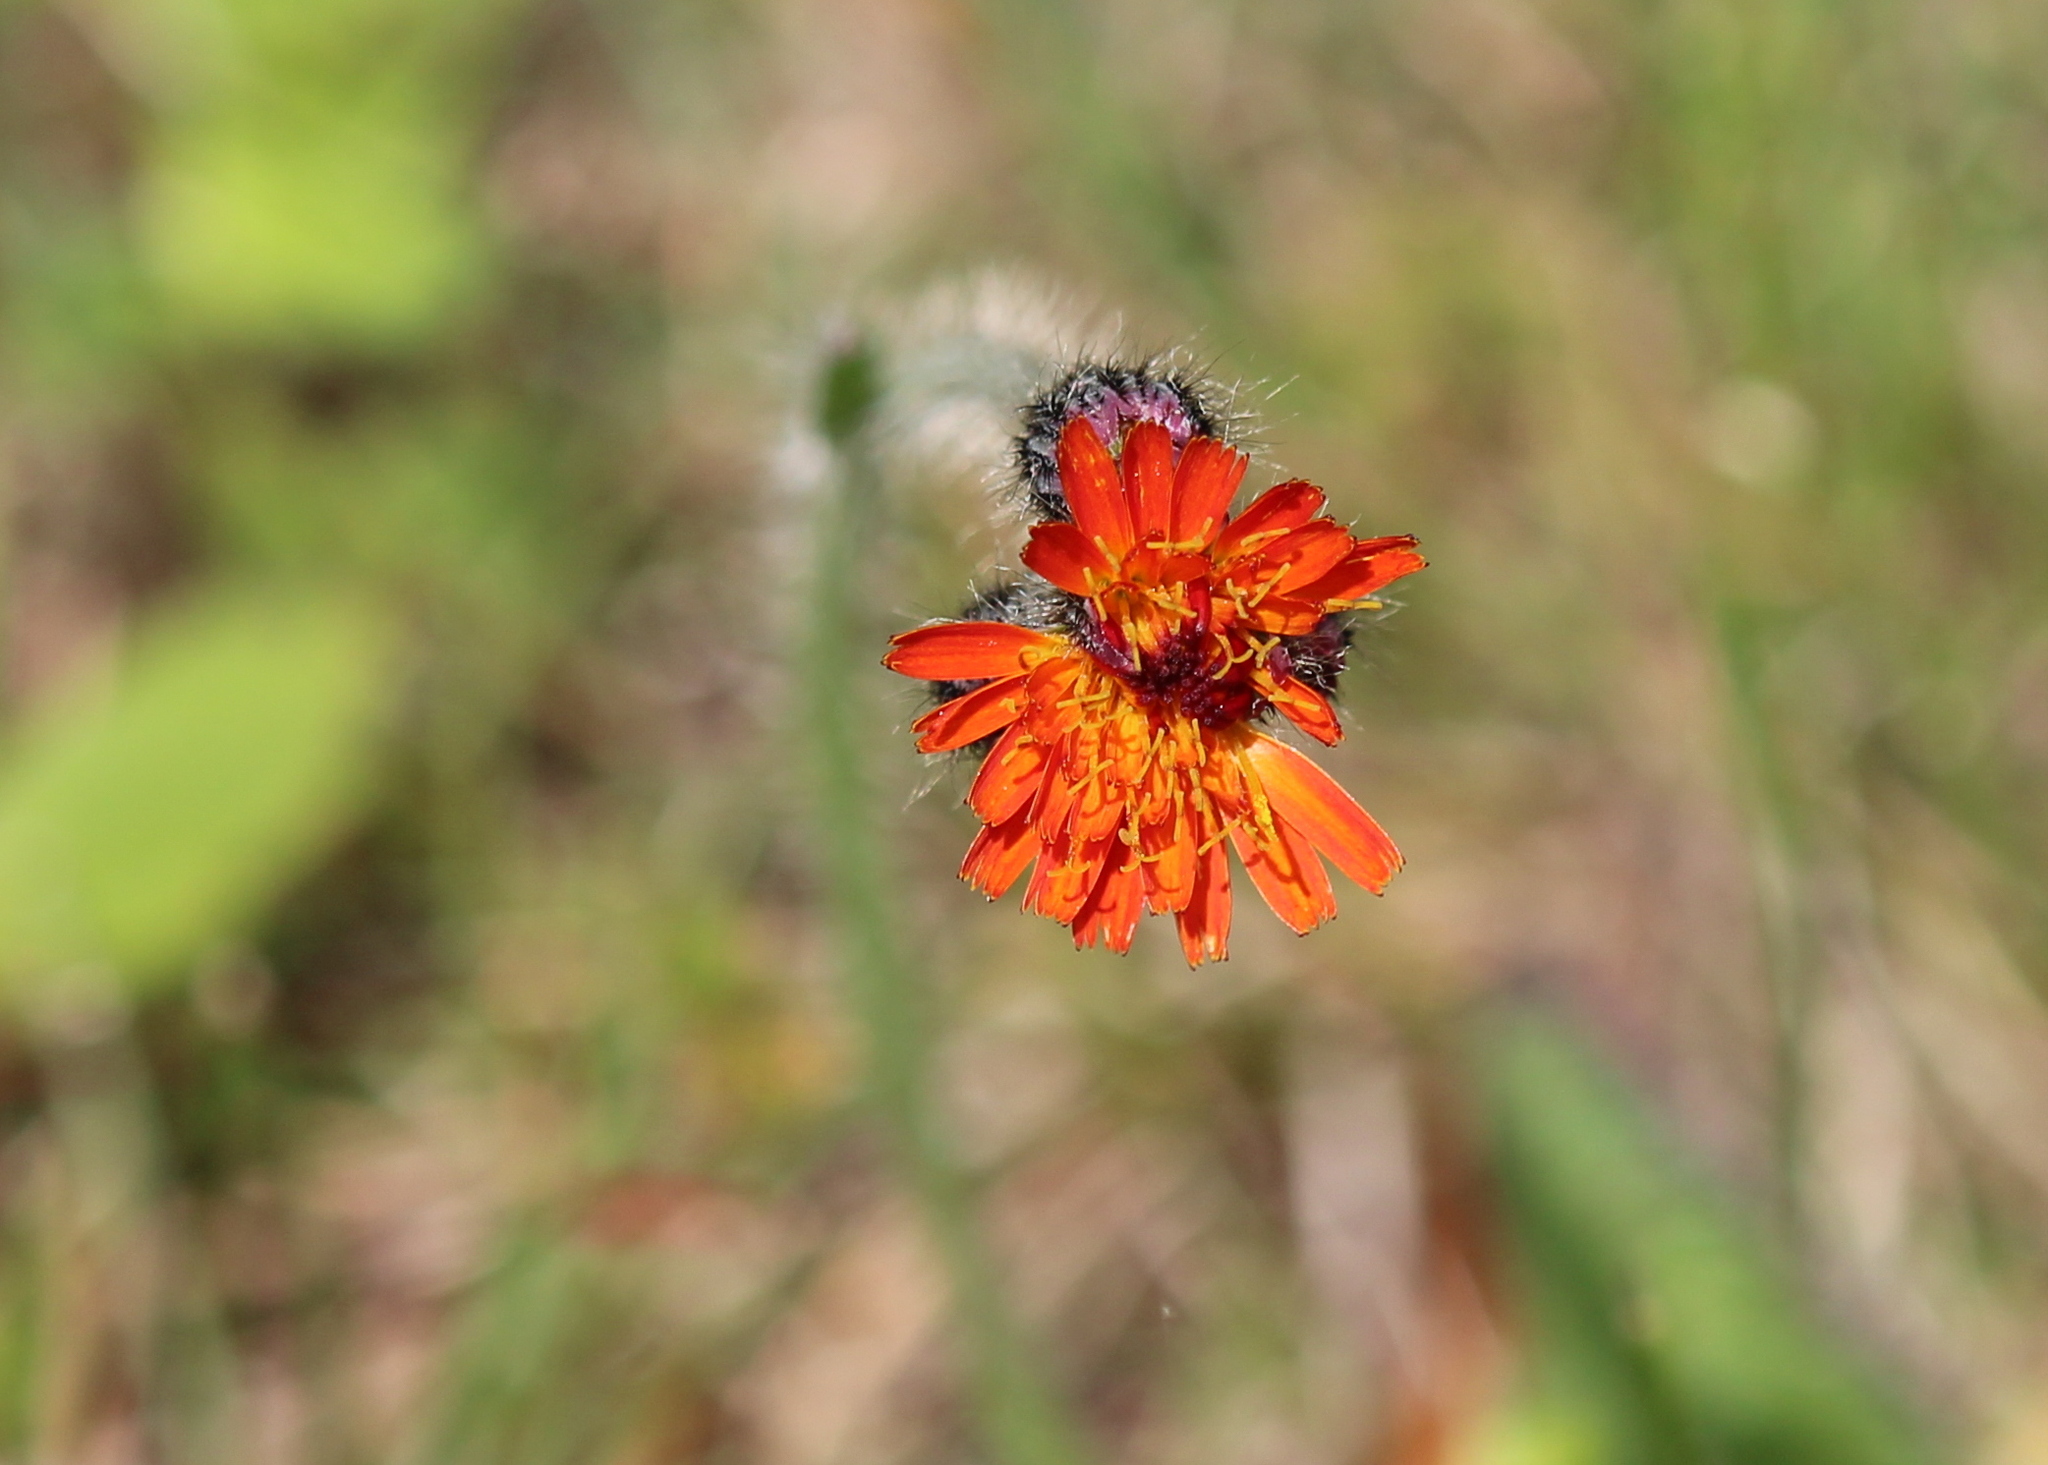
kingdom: Plantae
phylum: Tracheophyta
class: Magnoliopsida
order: Asterales
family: Asteraceae
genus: Pilosella
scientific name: Pilosella aurantiaca
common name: Fox-and-cubs
